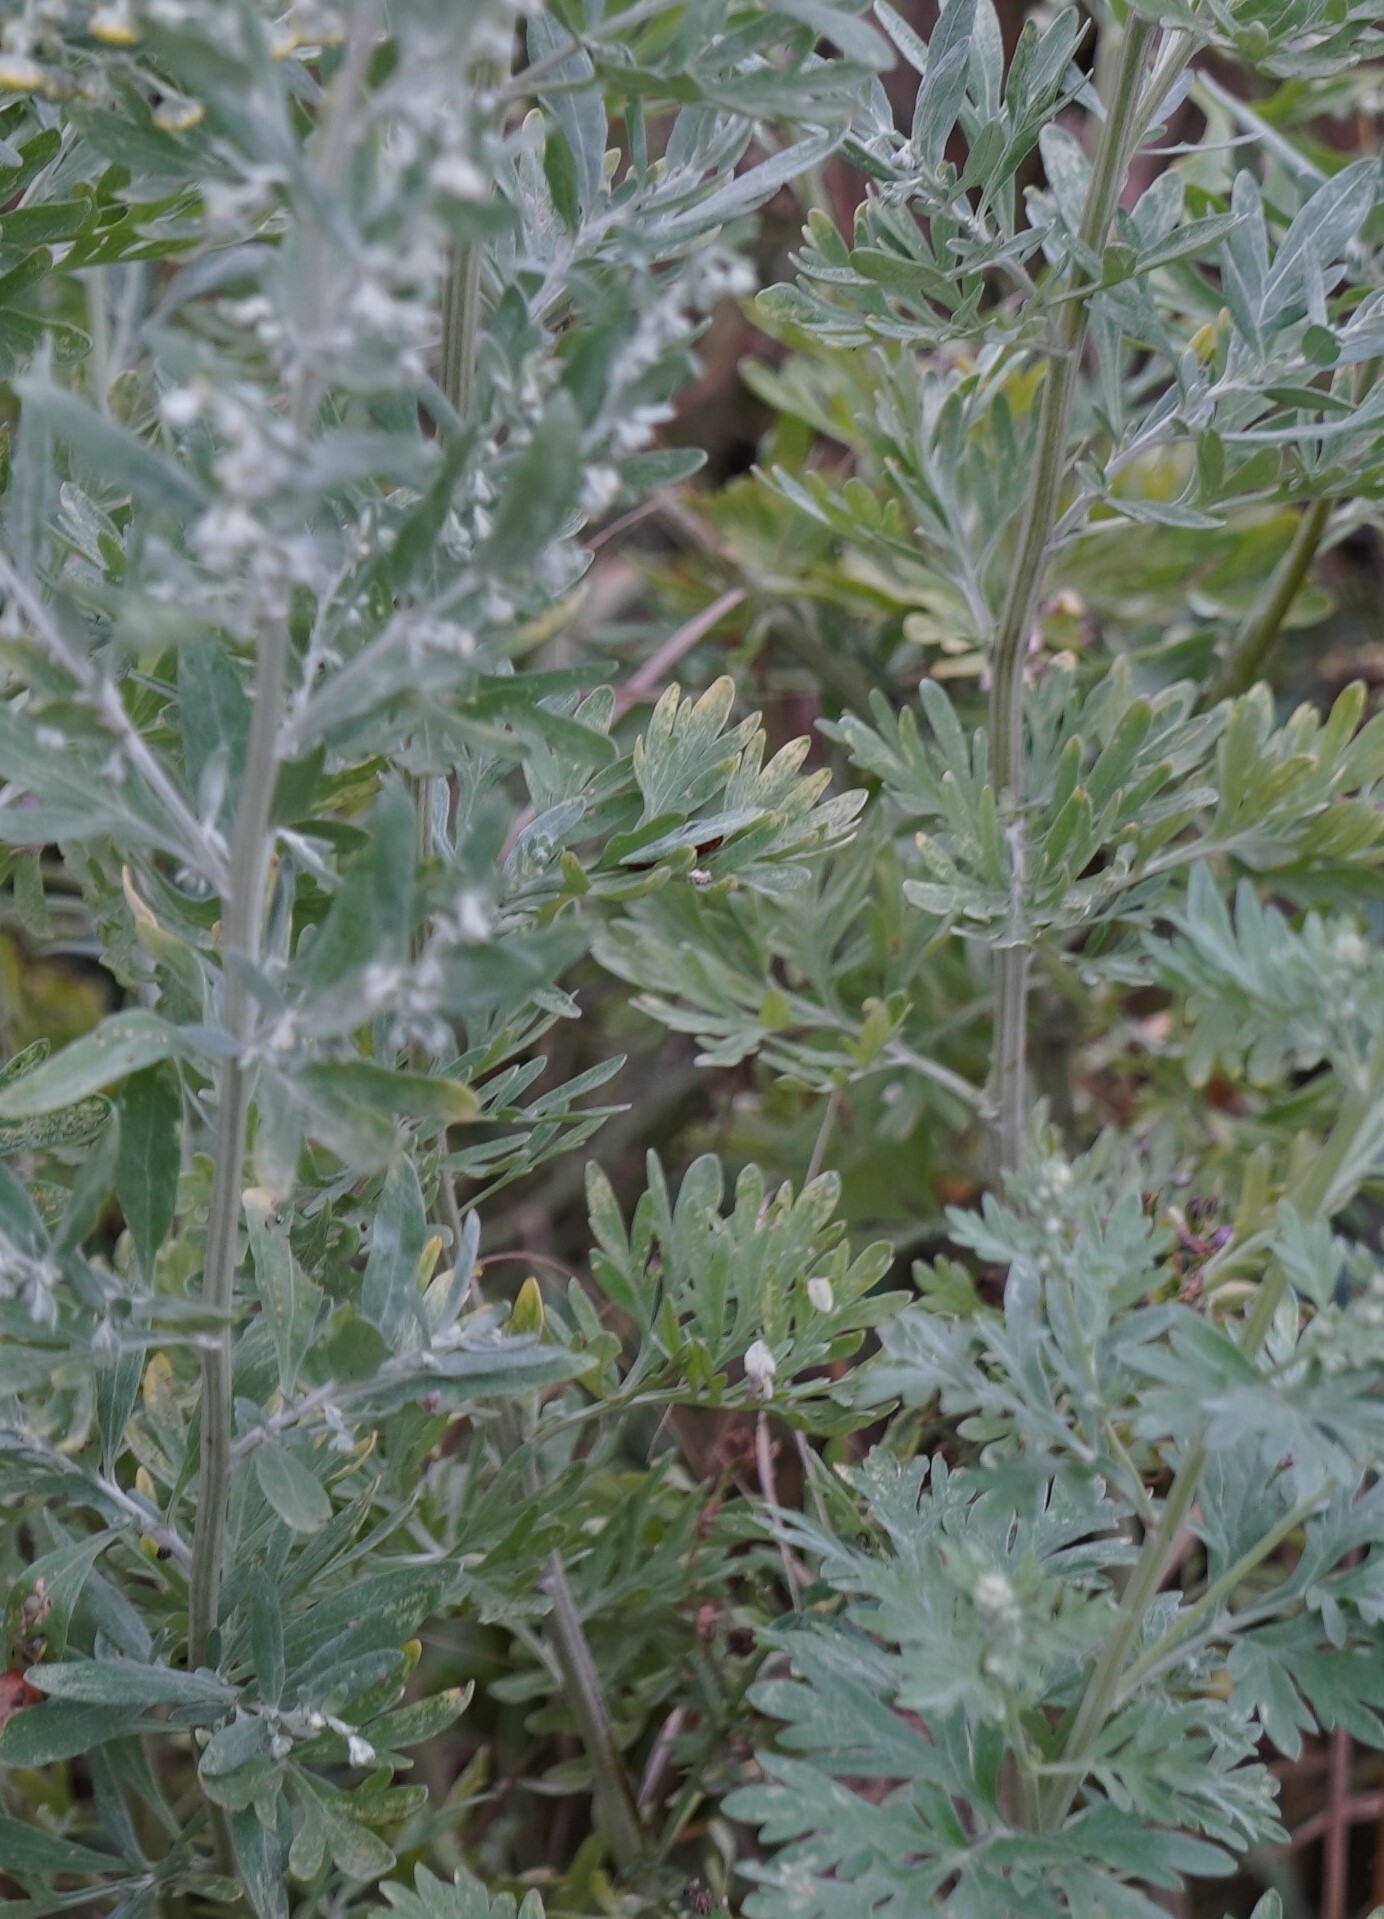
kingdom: Plantae
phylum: Tracheophyta
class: Magnoliopsida
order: Asterales
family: Asteraceae
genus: Artemisia
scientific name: Artemisia absinthium
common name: Wormwood
